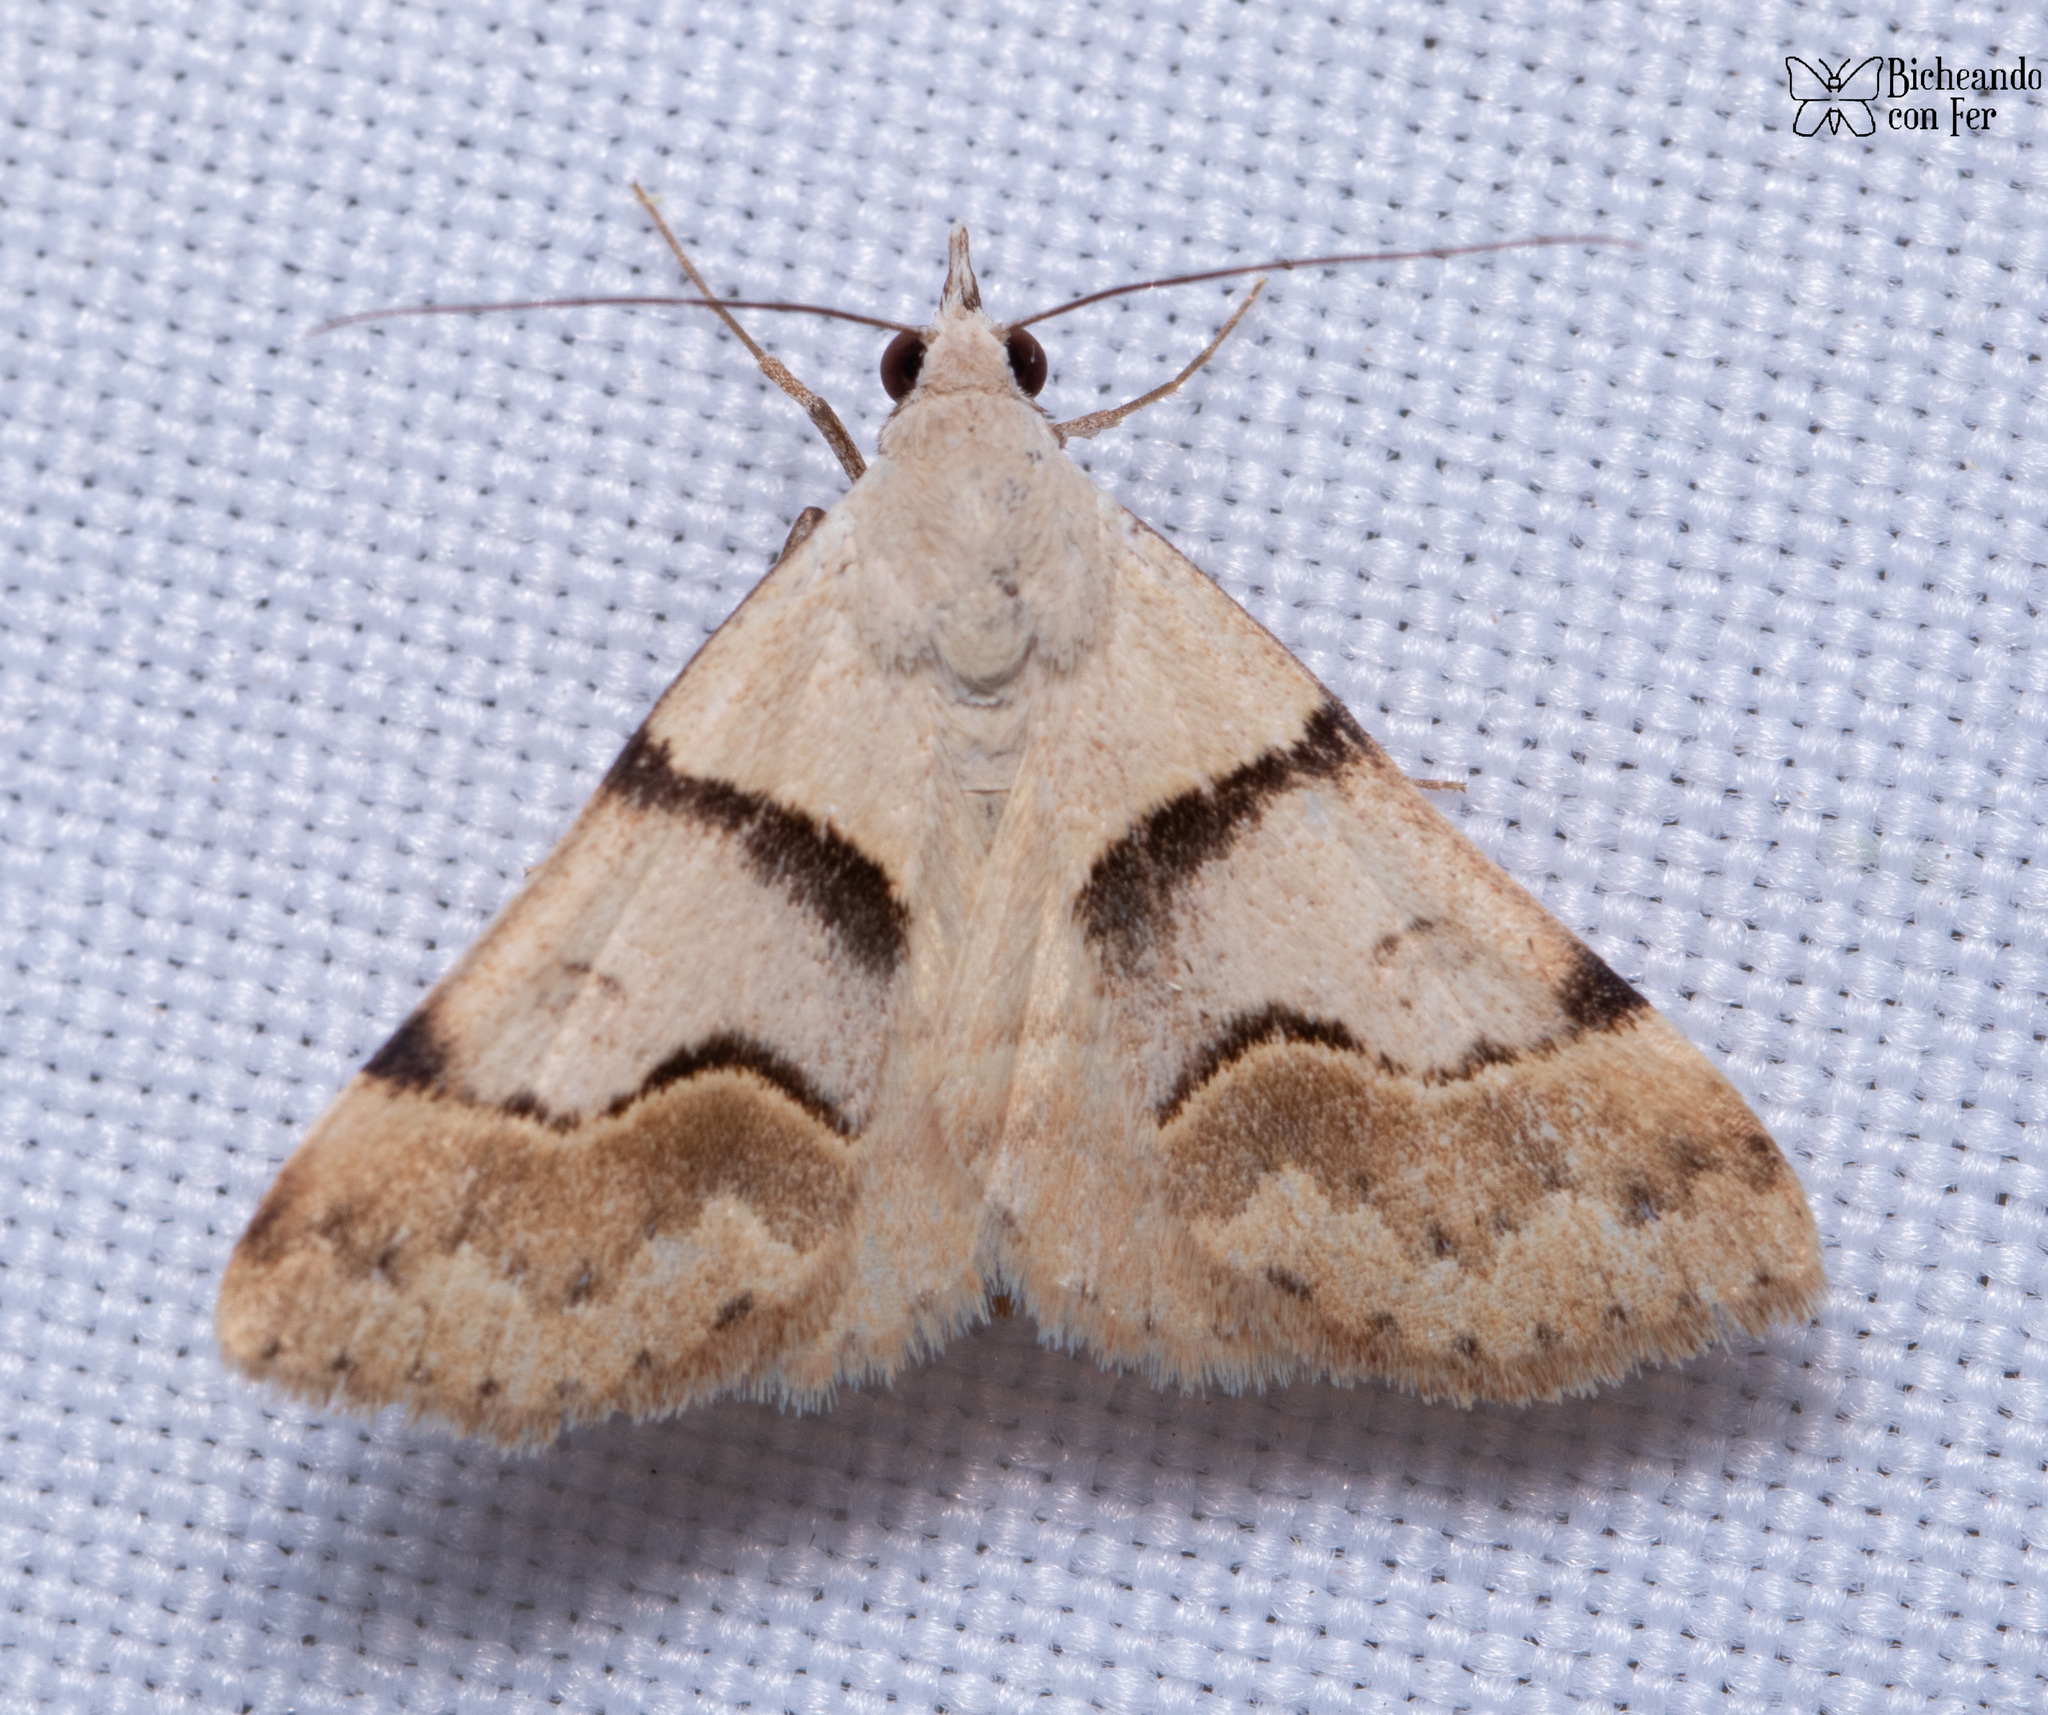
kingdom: Animalia
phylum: Arthropoda
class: Insecta
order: Lepidoptera
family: Erebidae
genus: Hemeroplanis
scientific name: Hemeroplanis incusalis
